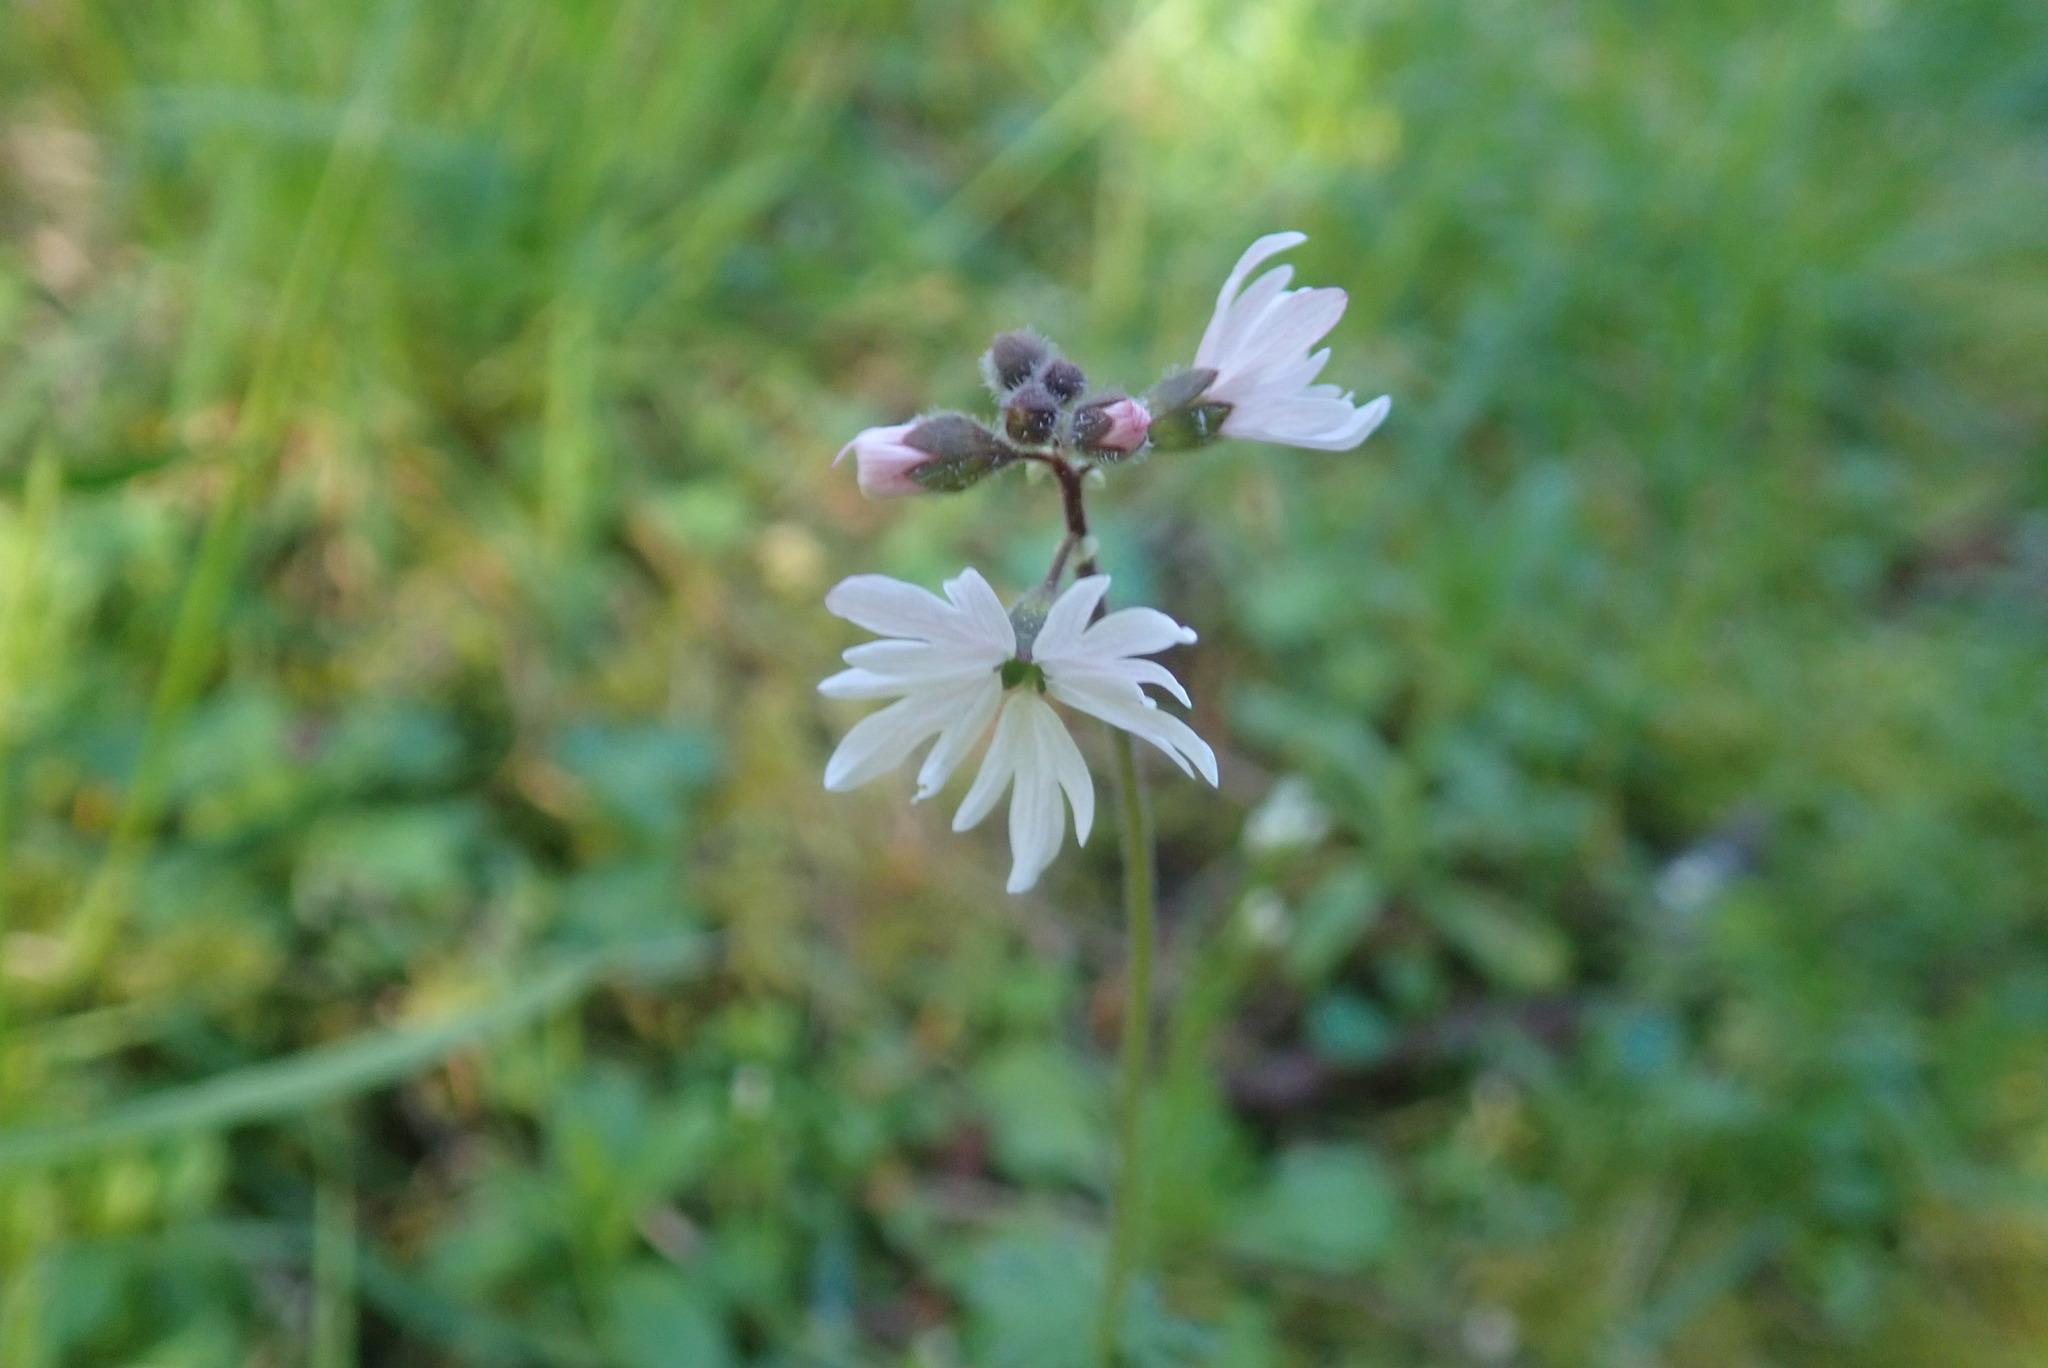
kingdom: Plantae
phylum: Tracheophyta
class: Magnoliopsida
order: Saxifragales
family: Saxifragaceae
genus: Lithophragma
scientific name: Lithophragma parviflorum
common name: Small-flowered fringe-cup
